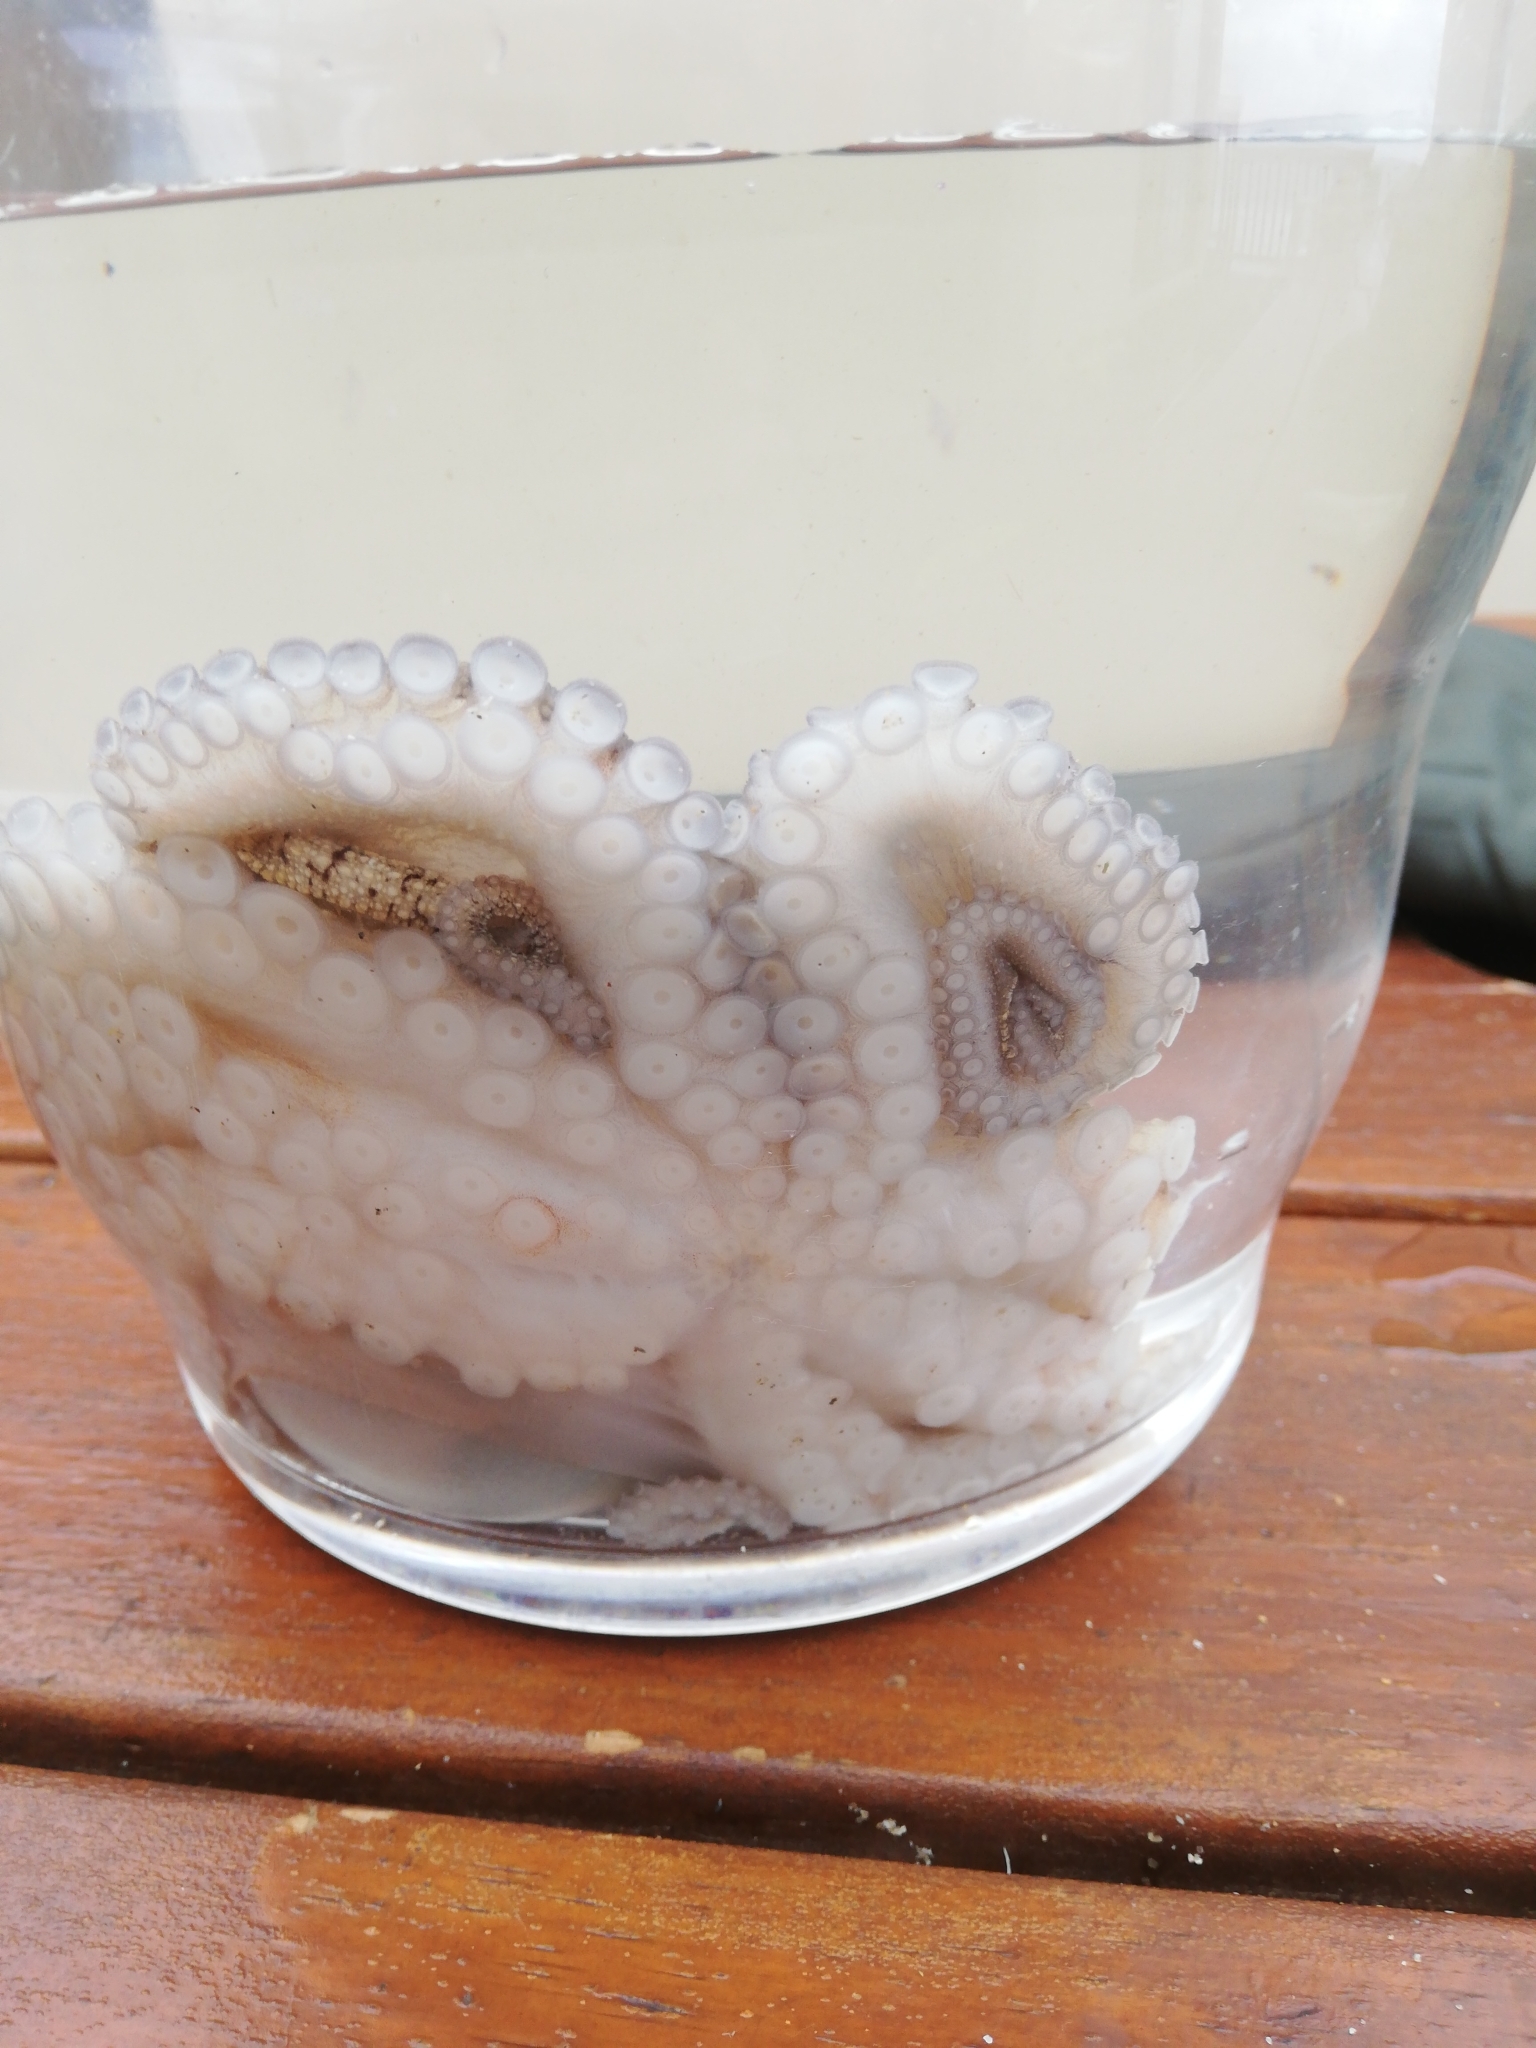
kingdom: Animalia
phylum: Mollusca
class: Cephalopoda
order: Octopoda
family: Octopodidae
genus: Octopus
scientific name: Octopus vulgaris
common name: Common octopus
